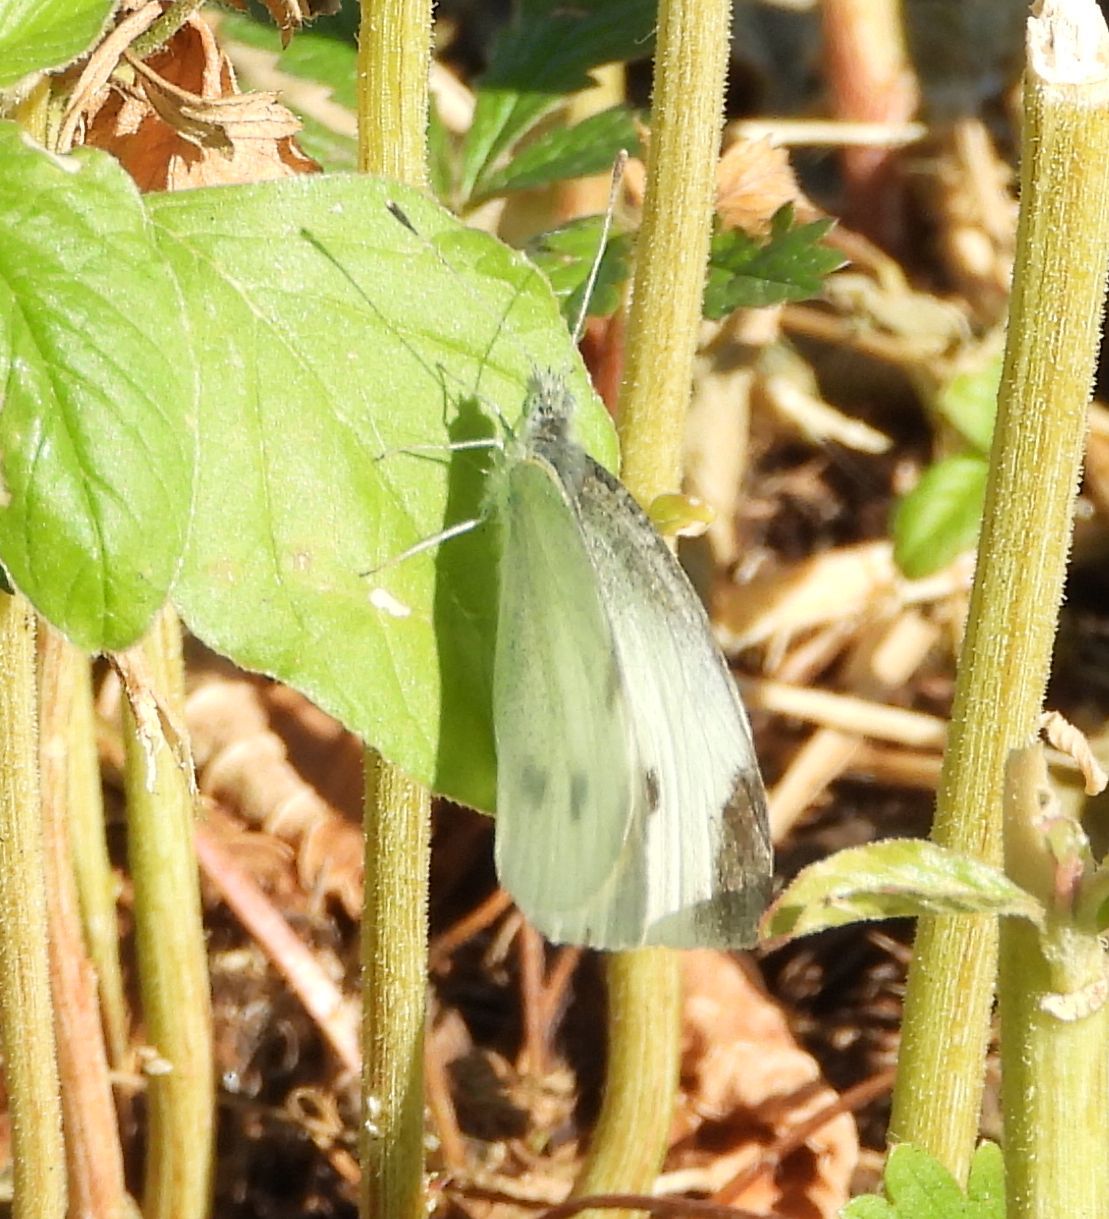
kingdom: Animalia
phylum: Arthropoda
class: Insecta
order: Lepidoptera
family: Pieridae
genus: Pieris
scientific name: Pieris rapae
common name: Small white
